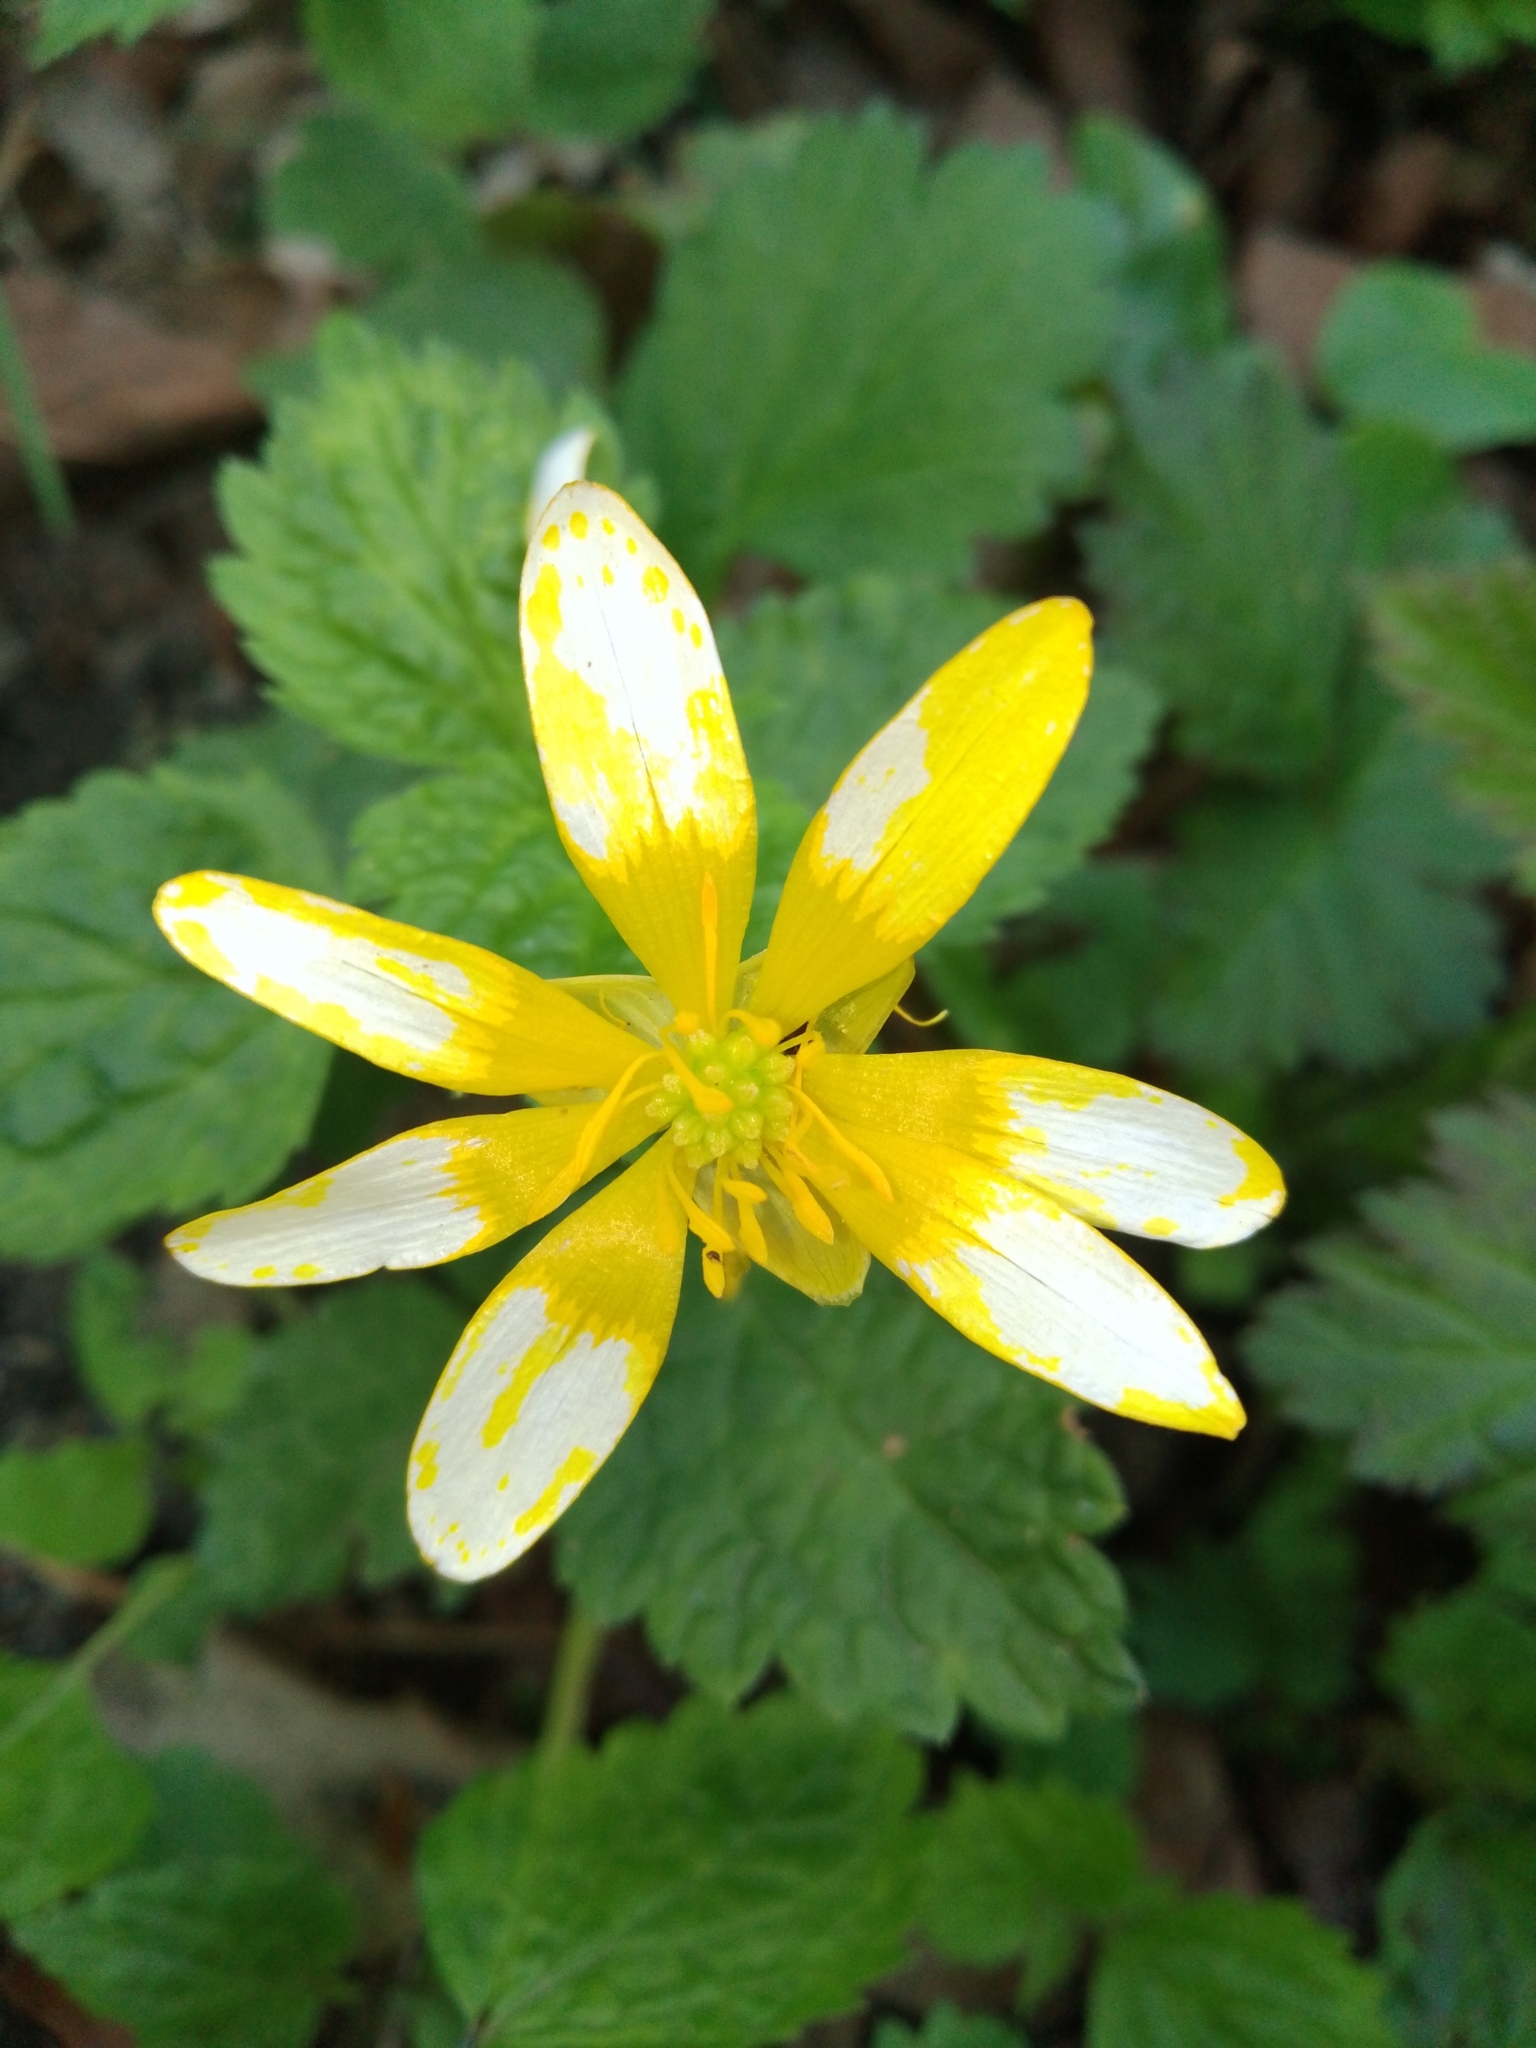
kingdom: Plantae
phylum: Tracheophyta
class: Magnoliopsida
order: Ranunculales
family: Ranunculaceae
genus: Ficaria
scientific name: Ficaria verna
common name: Lesser celandine
